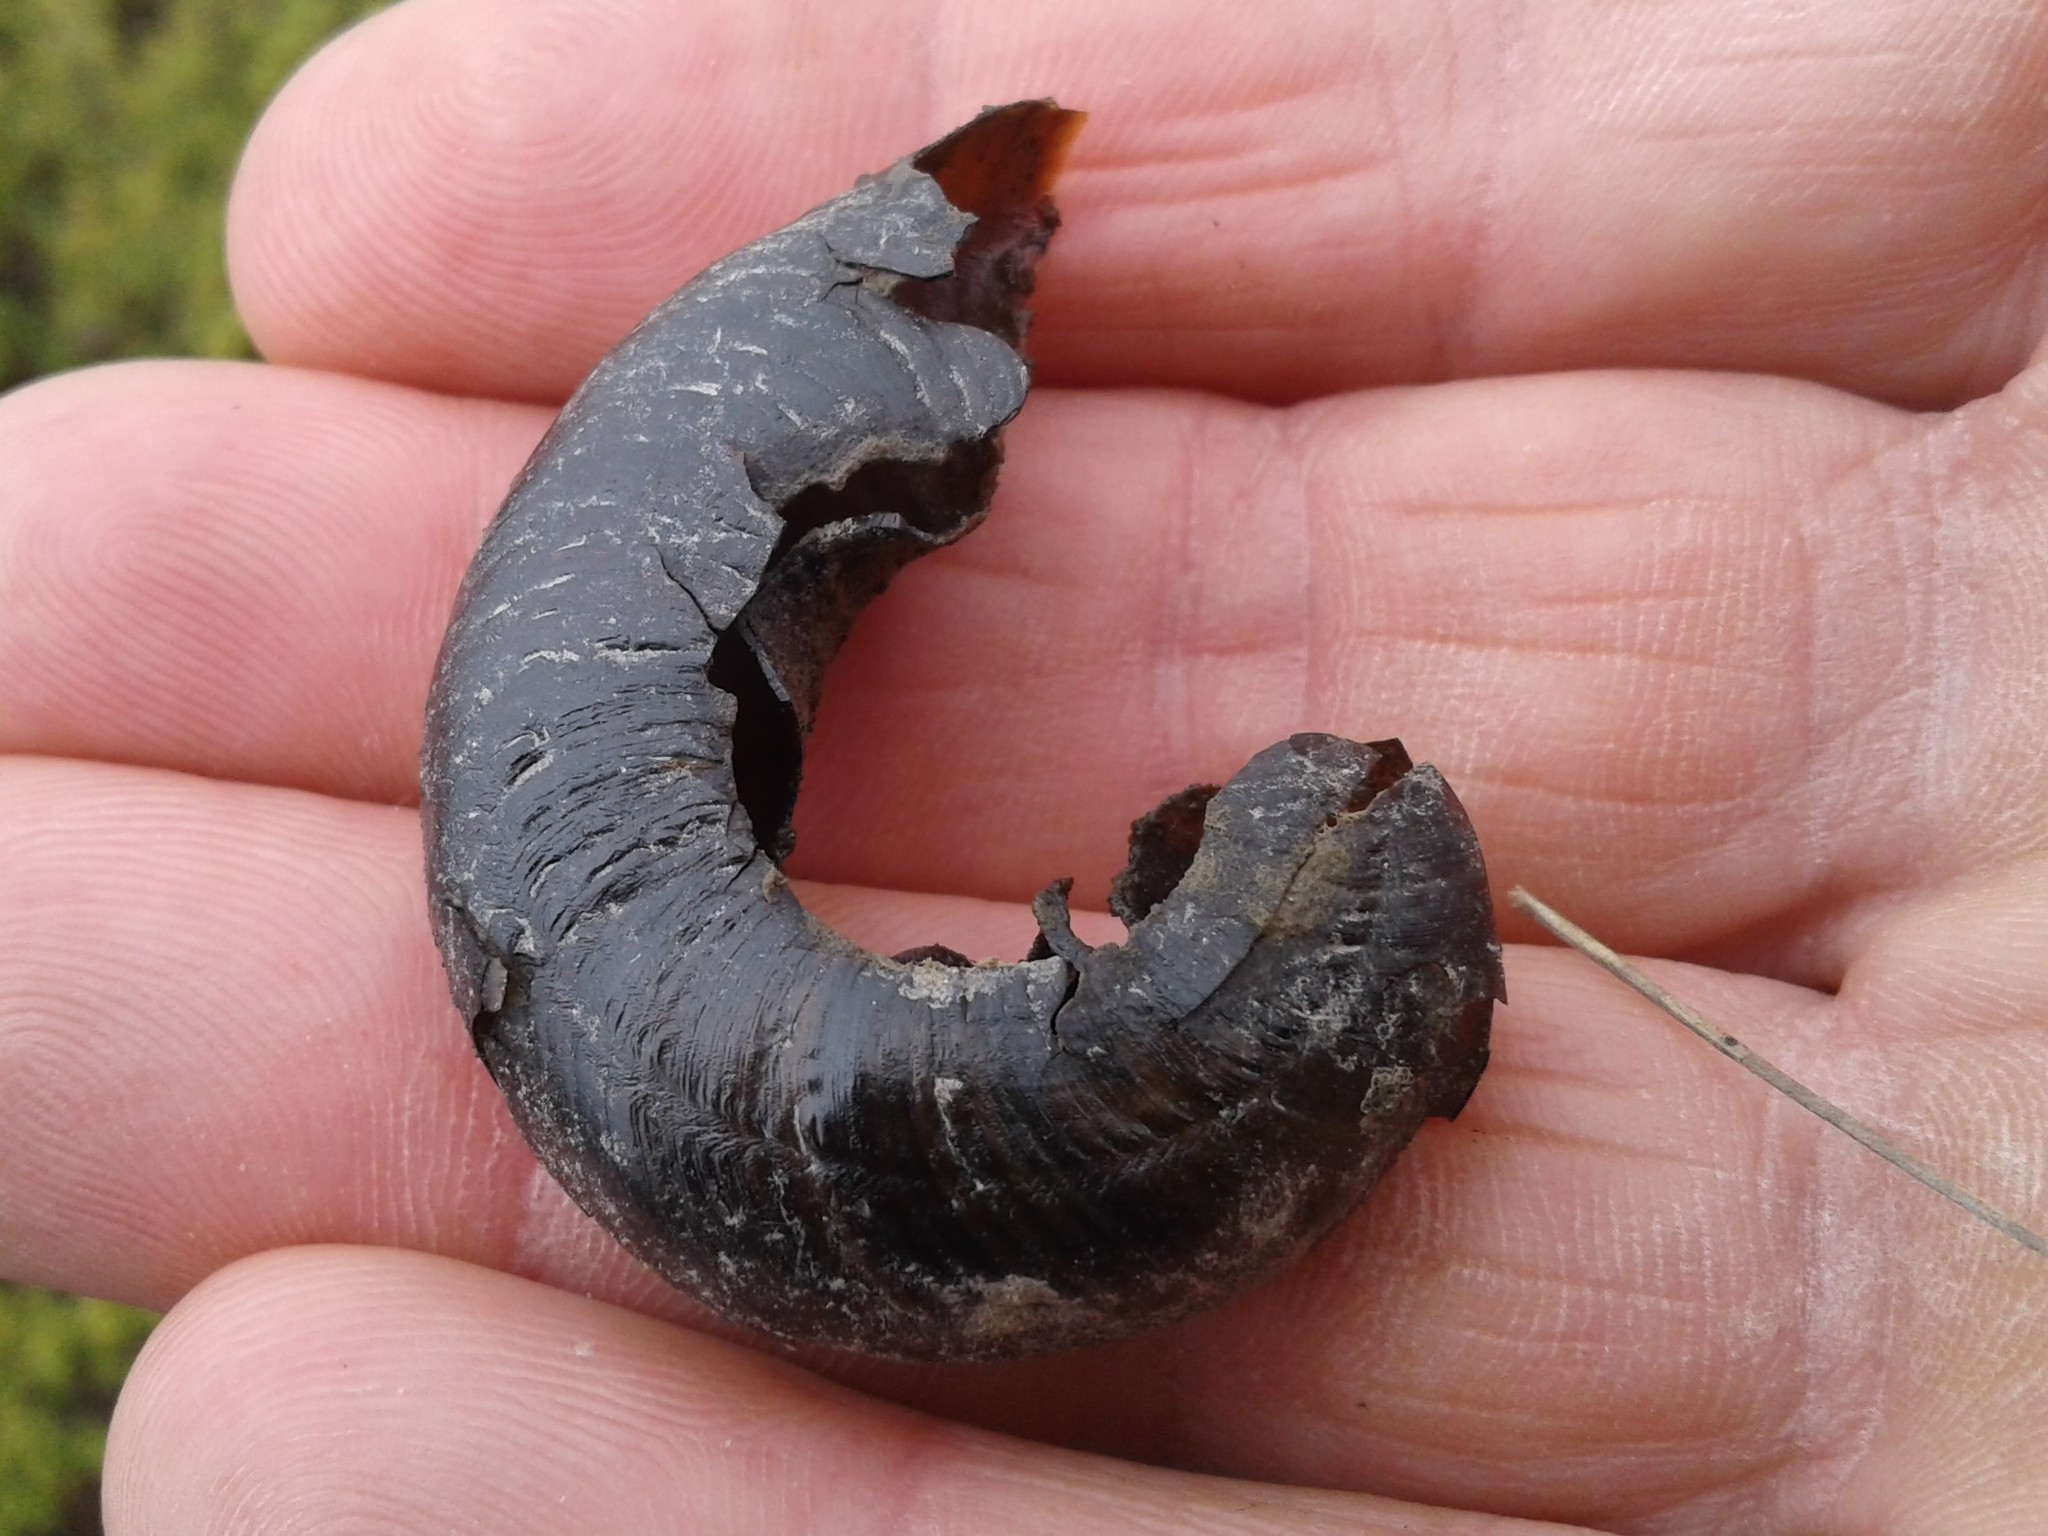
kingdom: Animalia
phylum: Mollusca
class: Gastropoda
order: Stylommatophora
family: Rhytididae
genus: Powelliphanta
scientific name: Powelliphanta patrickensis
